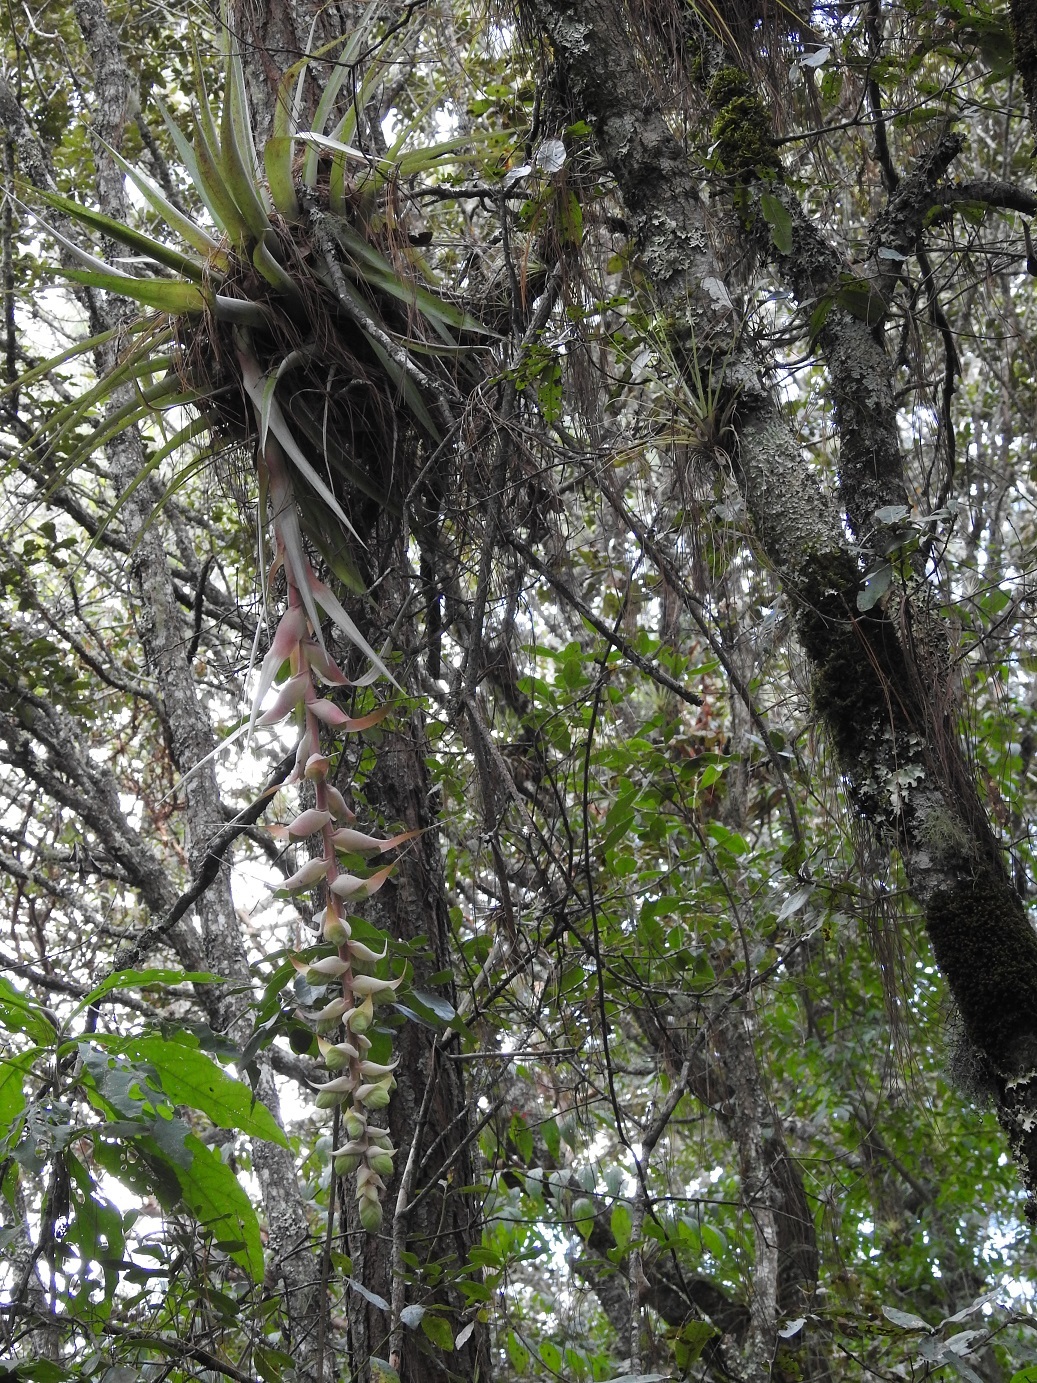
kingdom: Plantae
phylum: Tracheophyta
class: Liliopsida
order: Poales
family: Bromeliaceae
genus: Tillandsia
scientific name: Tillandsia eizii
